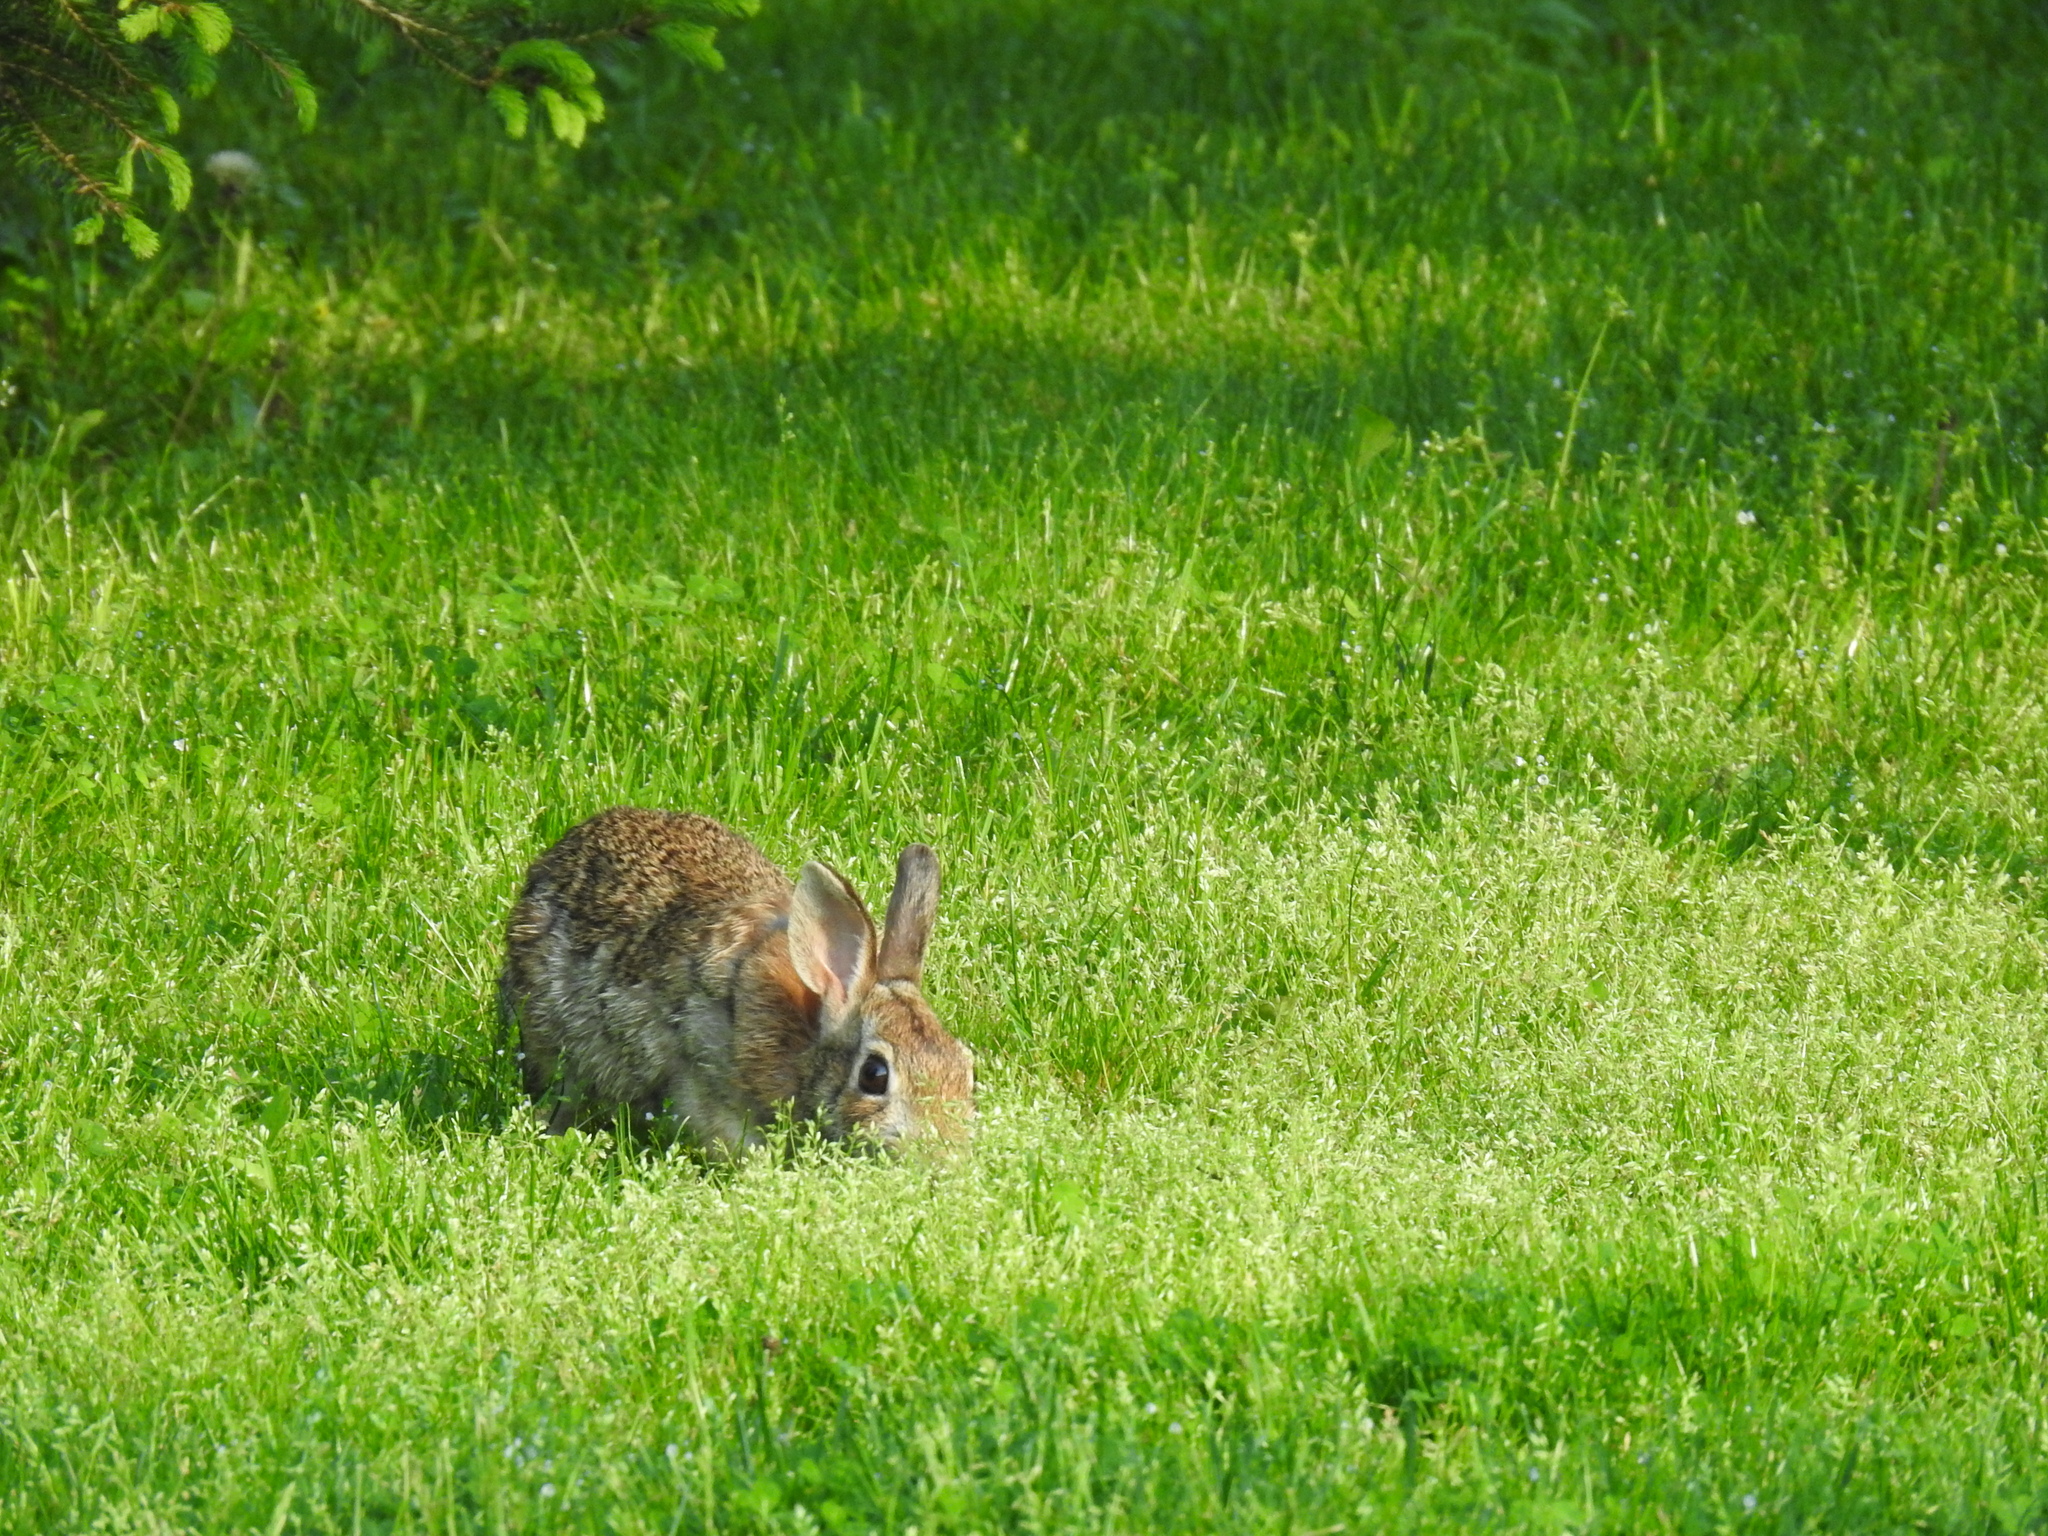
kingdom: Animalia
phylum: Chordata
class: Mammalia
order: Lagomorpha
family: Leporidae
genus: Sylvilagus
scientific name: Sylvilagus floridanus
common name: Eastern cottontail
